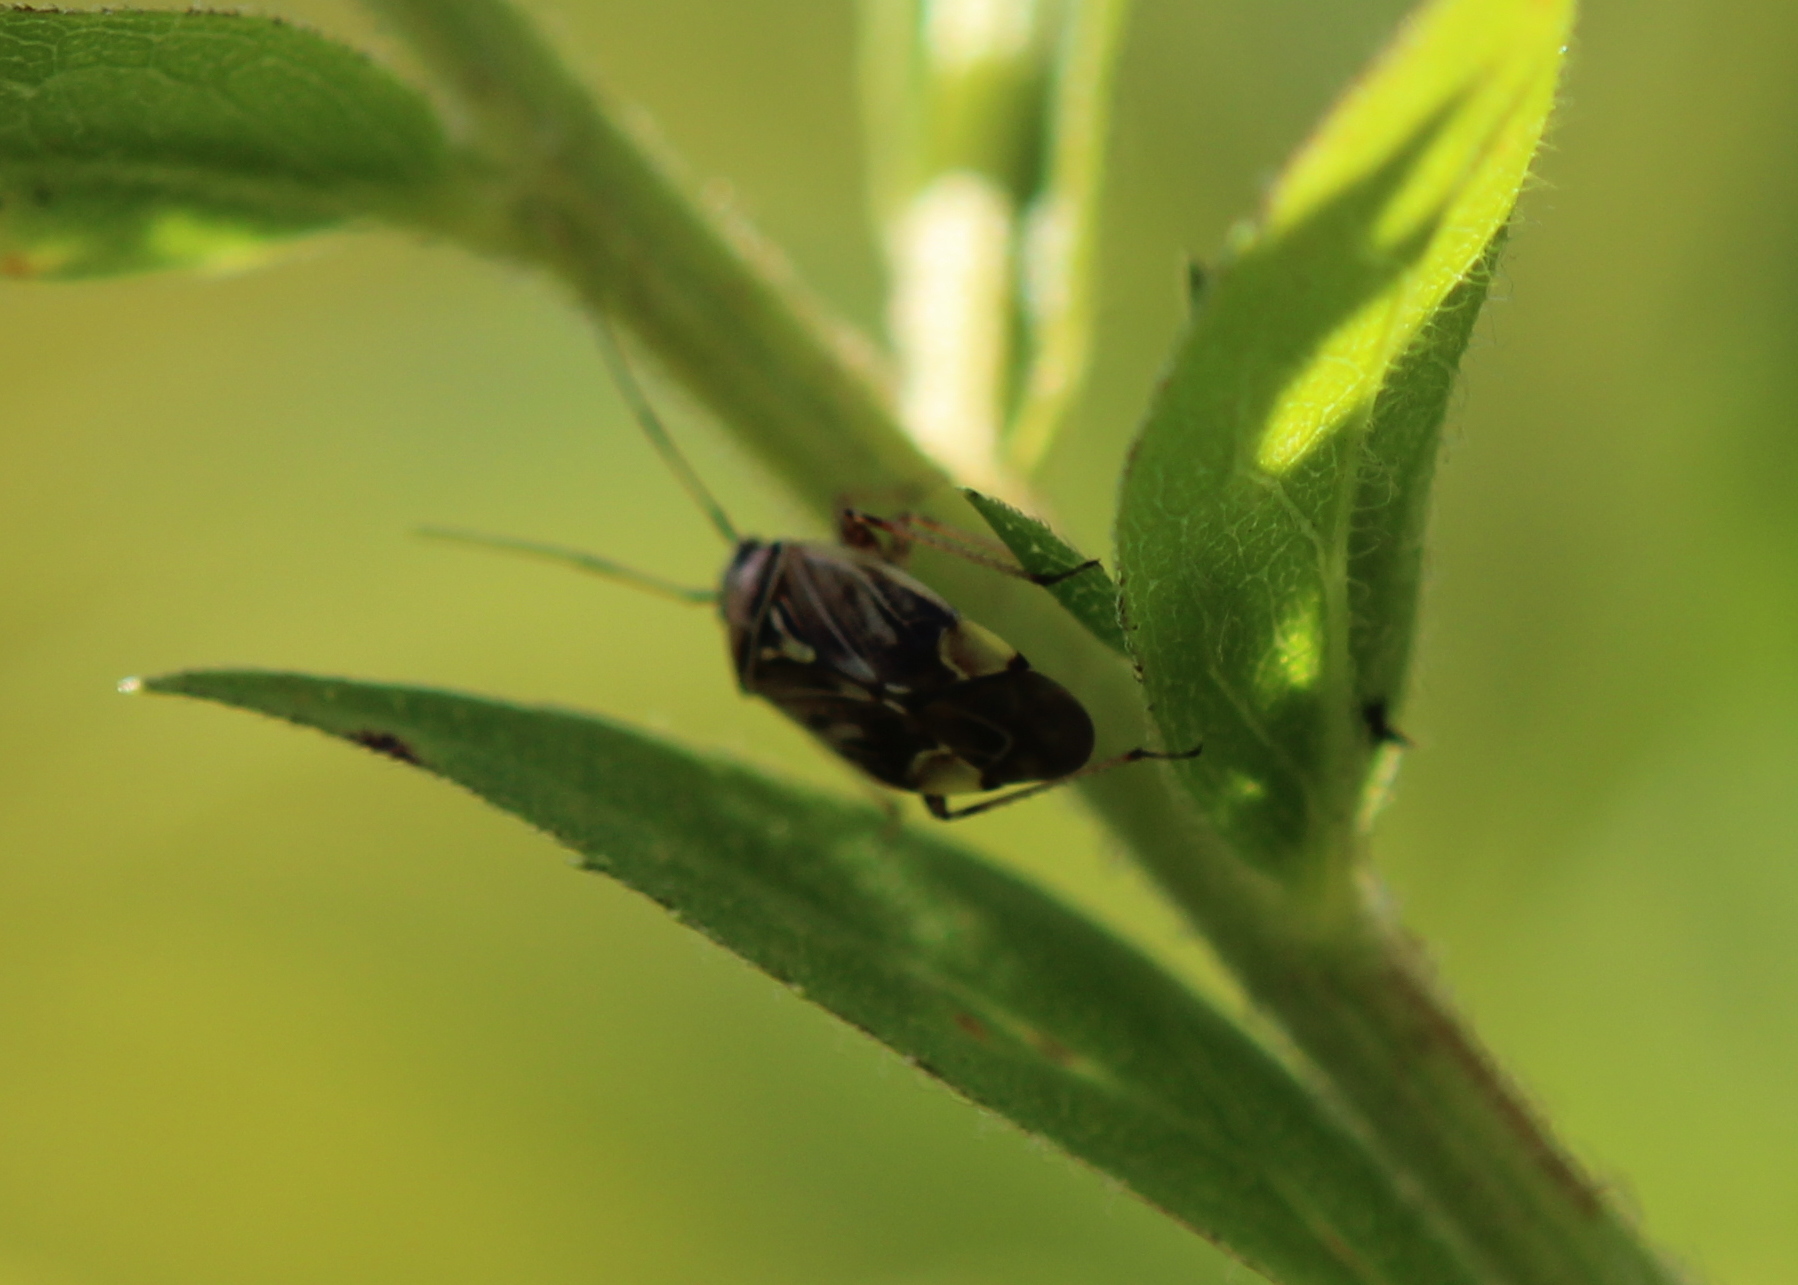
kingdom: Animalia
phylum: Arthropoda
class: Insecta
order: Hemiptera
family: Miridae
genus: Lygus
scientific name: Lygus lineolaris
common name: North american tarnished plant bug
